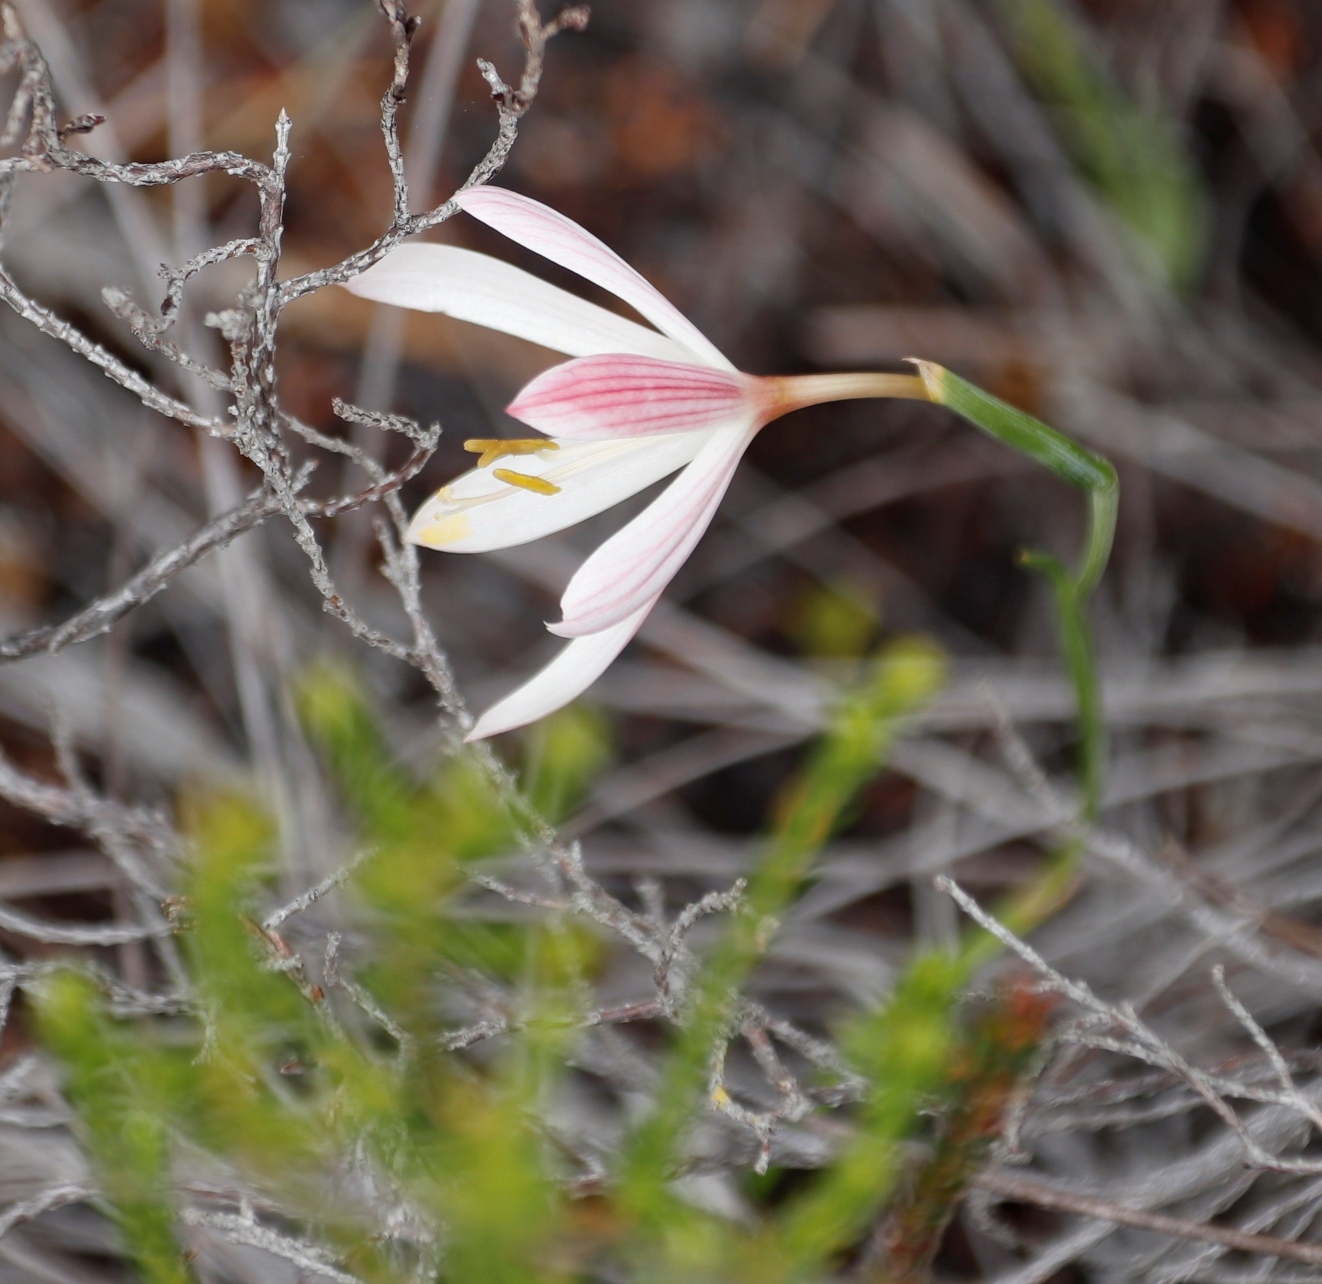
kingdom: Plantae
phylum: Tracheophyta
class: Liliopsida
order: Asparagales
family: Iridaceae
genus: Geissorhiza
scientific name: Geissorhiza bonae-spei
